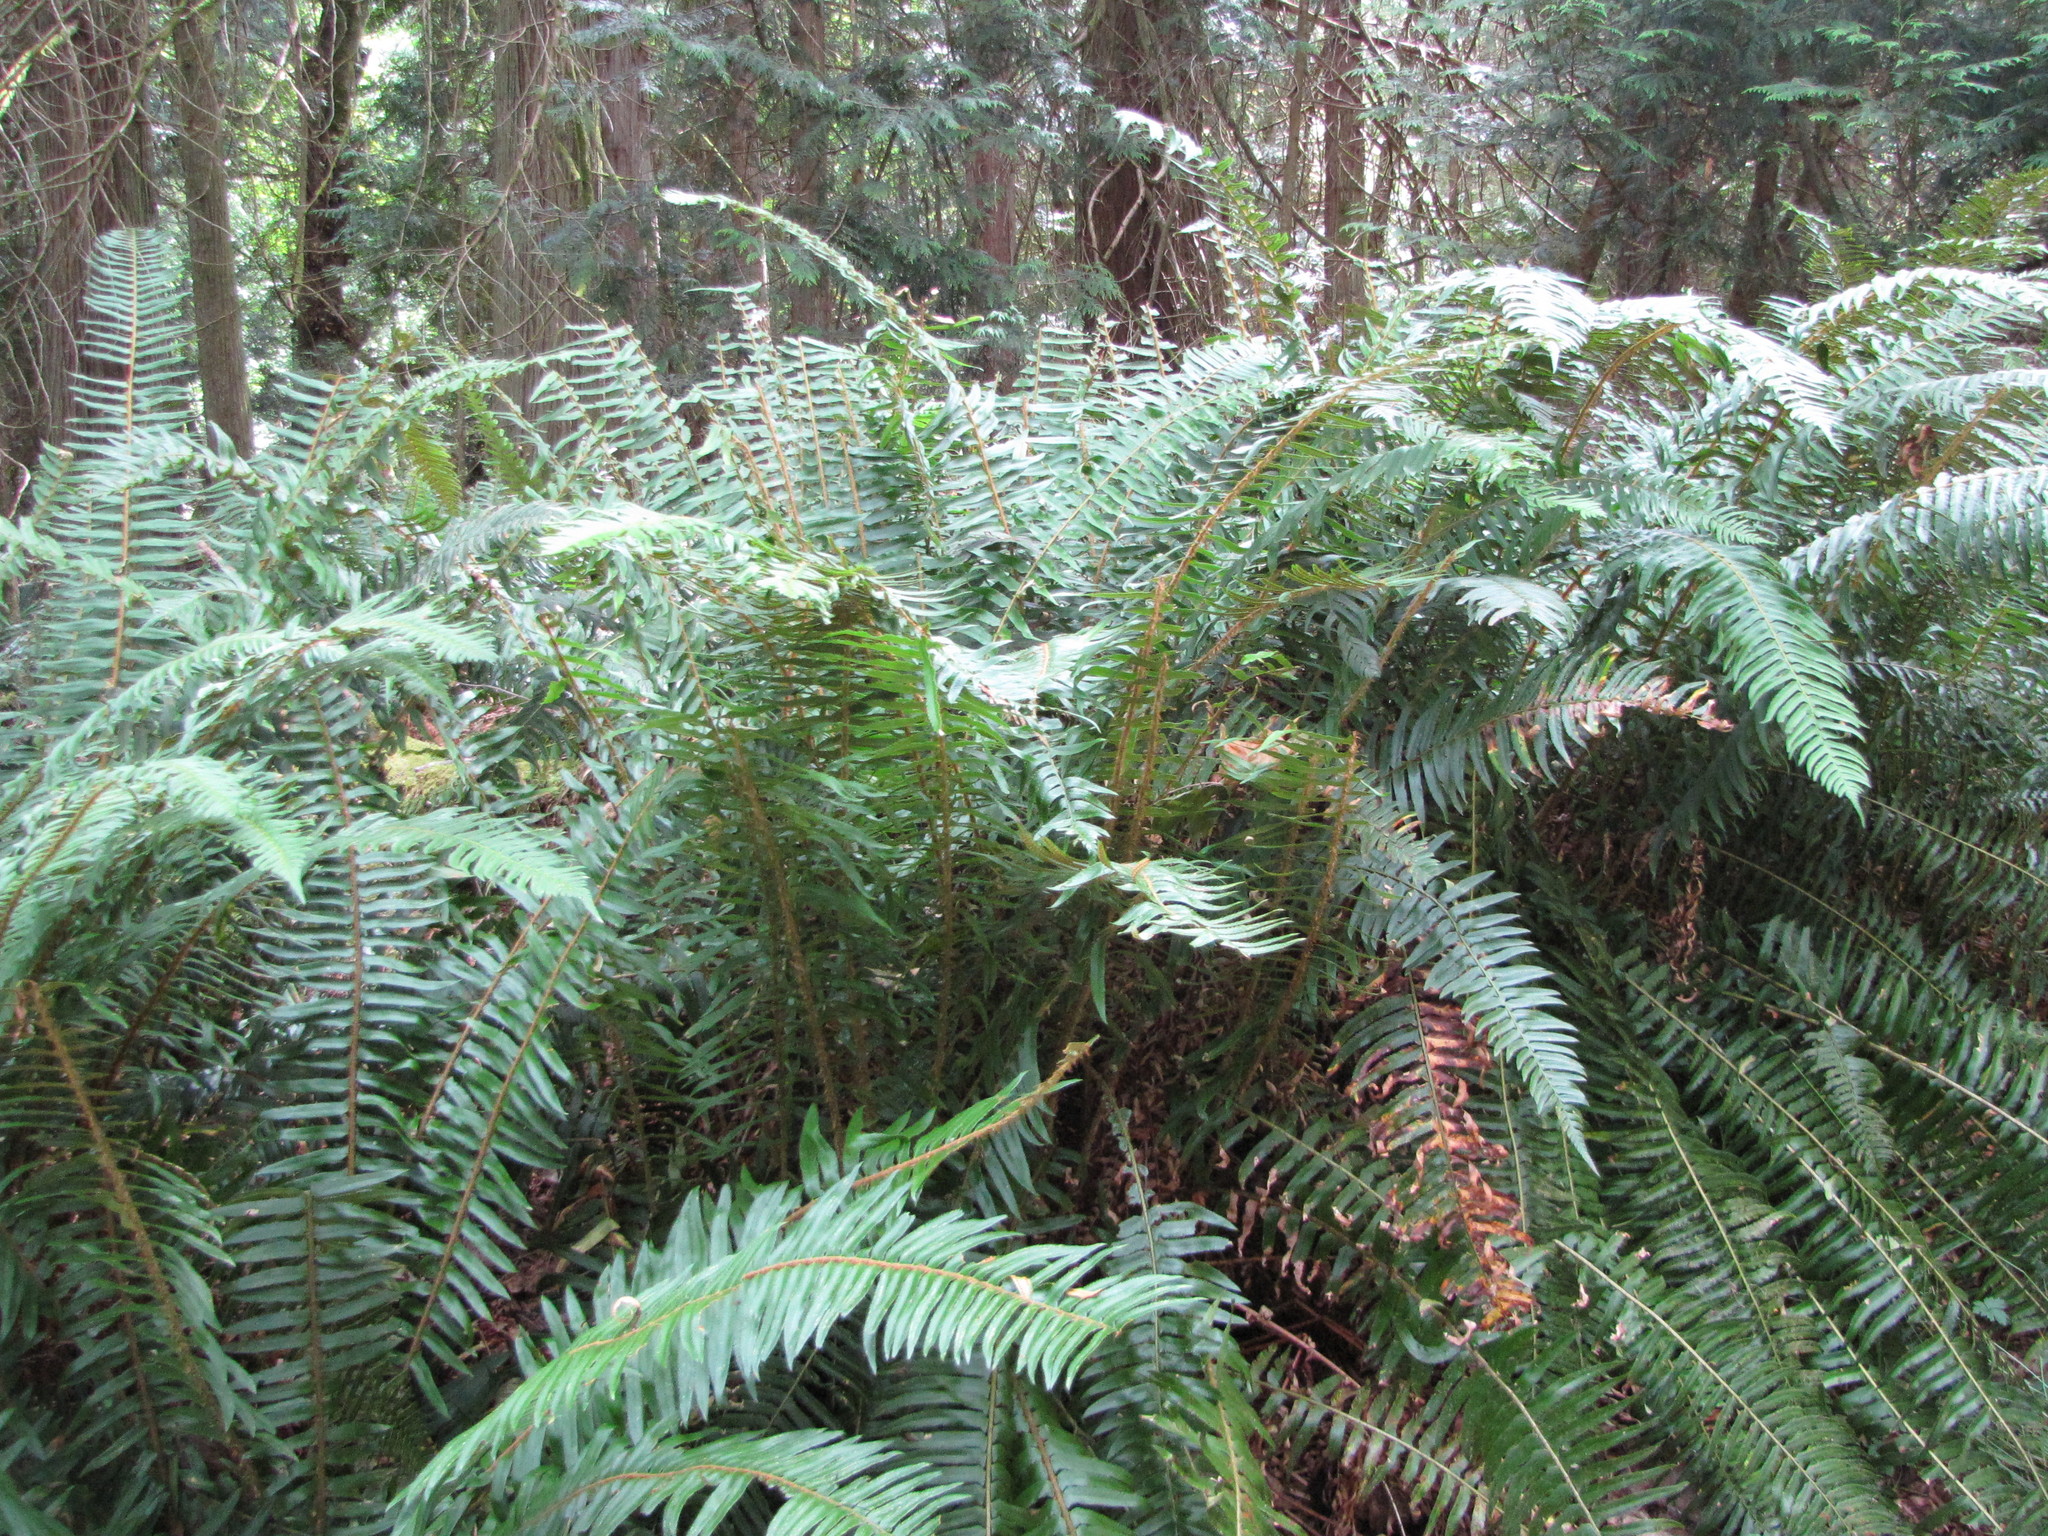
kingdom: Plantae
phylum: Tracheophyta
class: Polypodiopsida
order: Polypodiales
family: Dryopteridaceae
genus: Polystichum
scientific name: Polystichum munitum
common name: Western sword-fern
